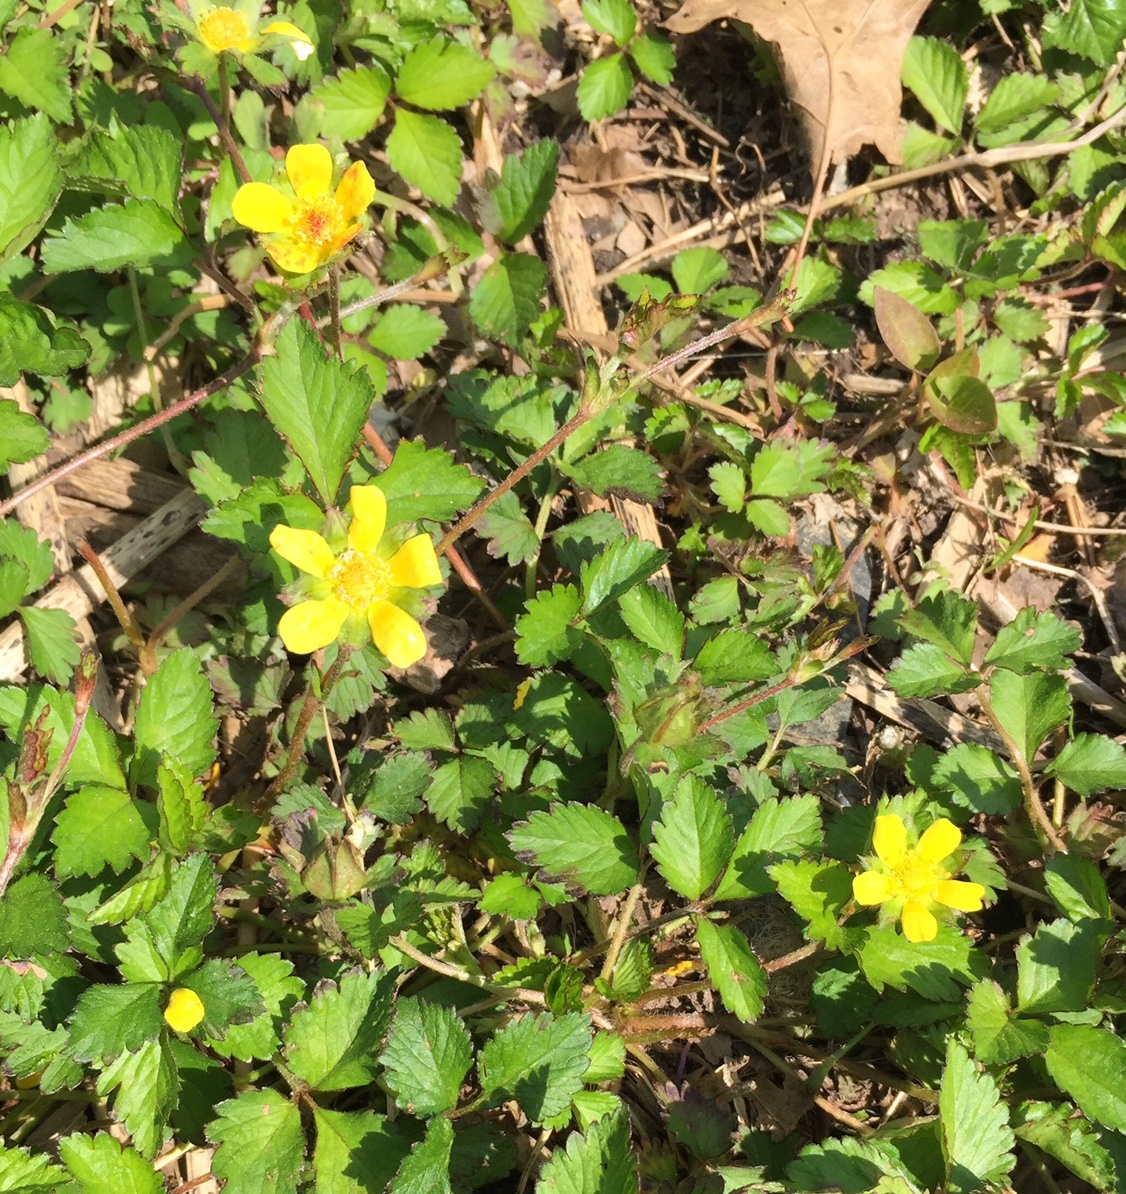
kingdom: Plantae
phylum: Tracheophyta
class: Magnoliopsida
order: Rosales
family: Rosaceae
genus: Potentilla
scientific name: Potentilla indica
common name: Yellow-flowered strawberry
